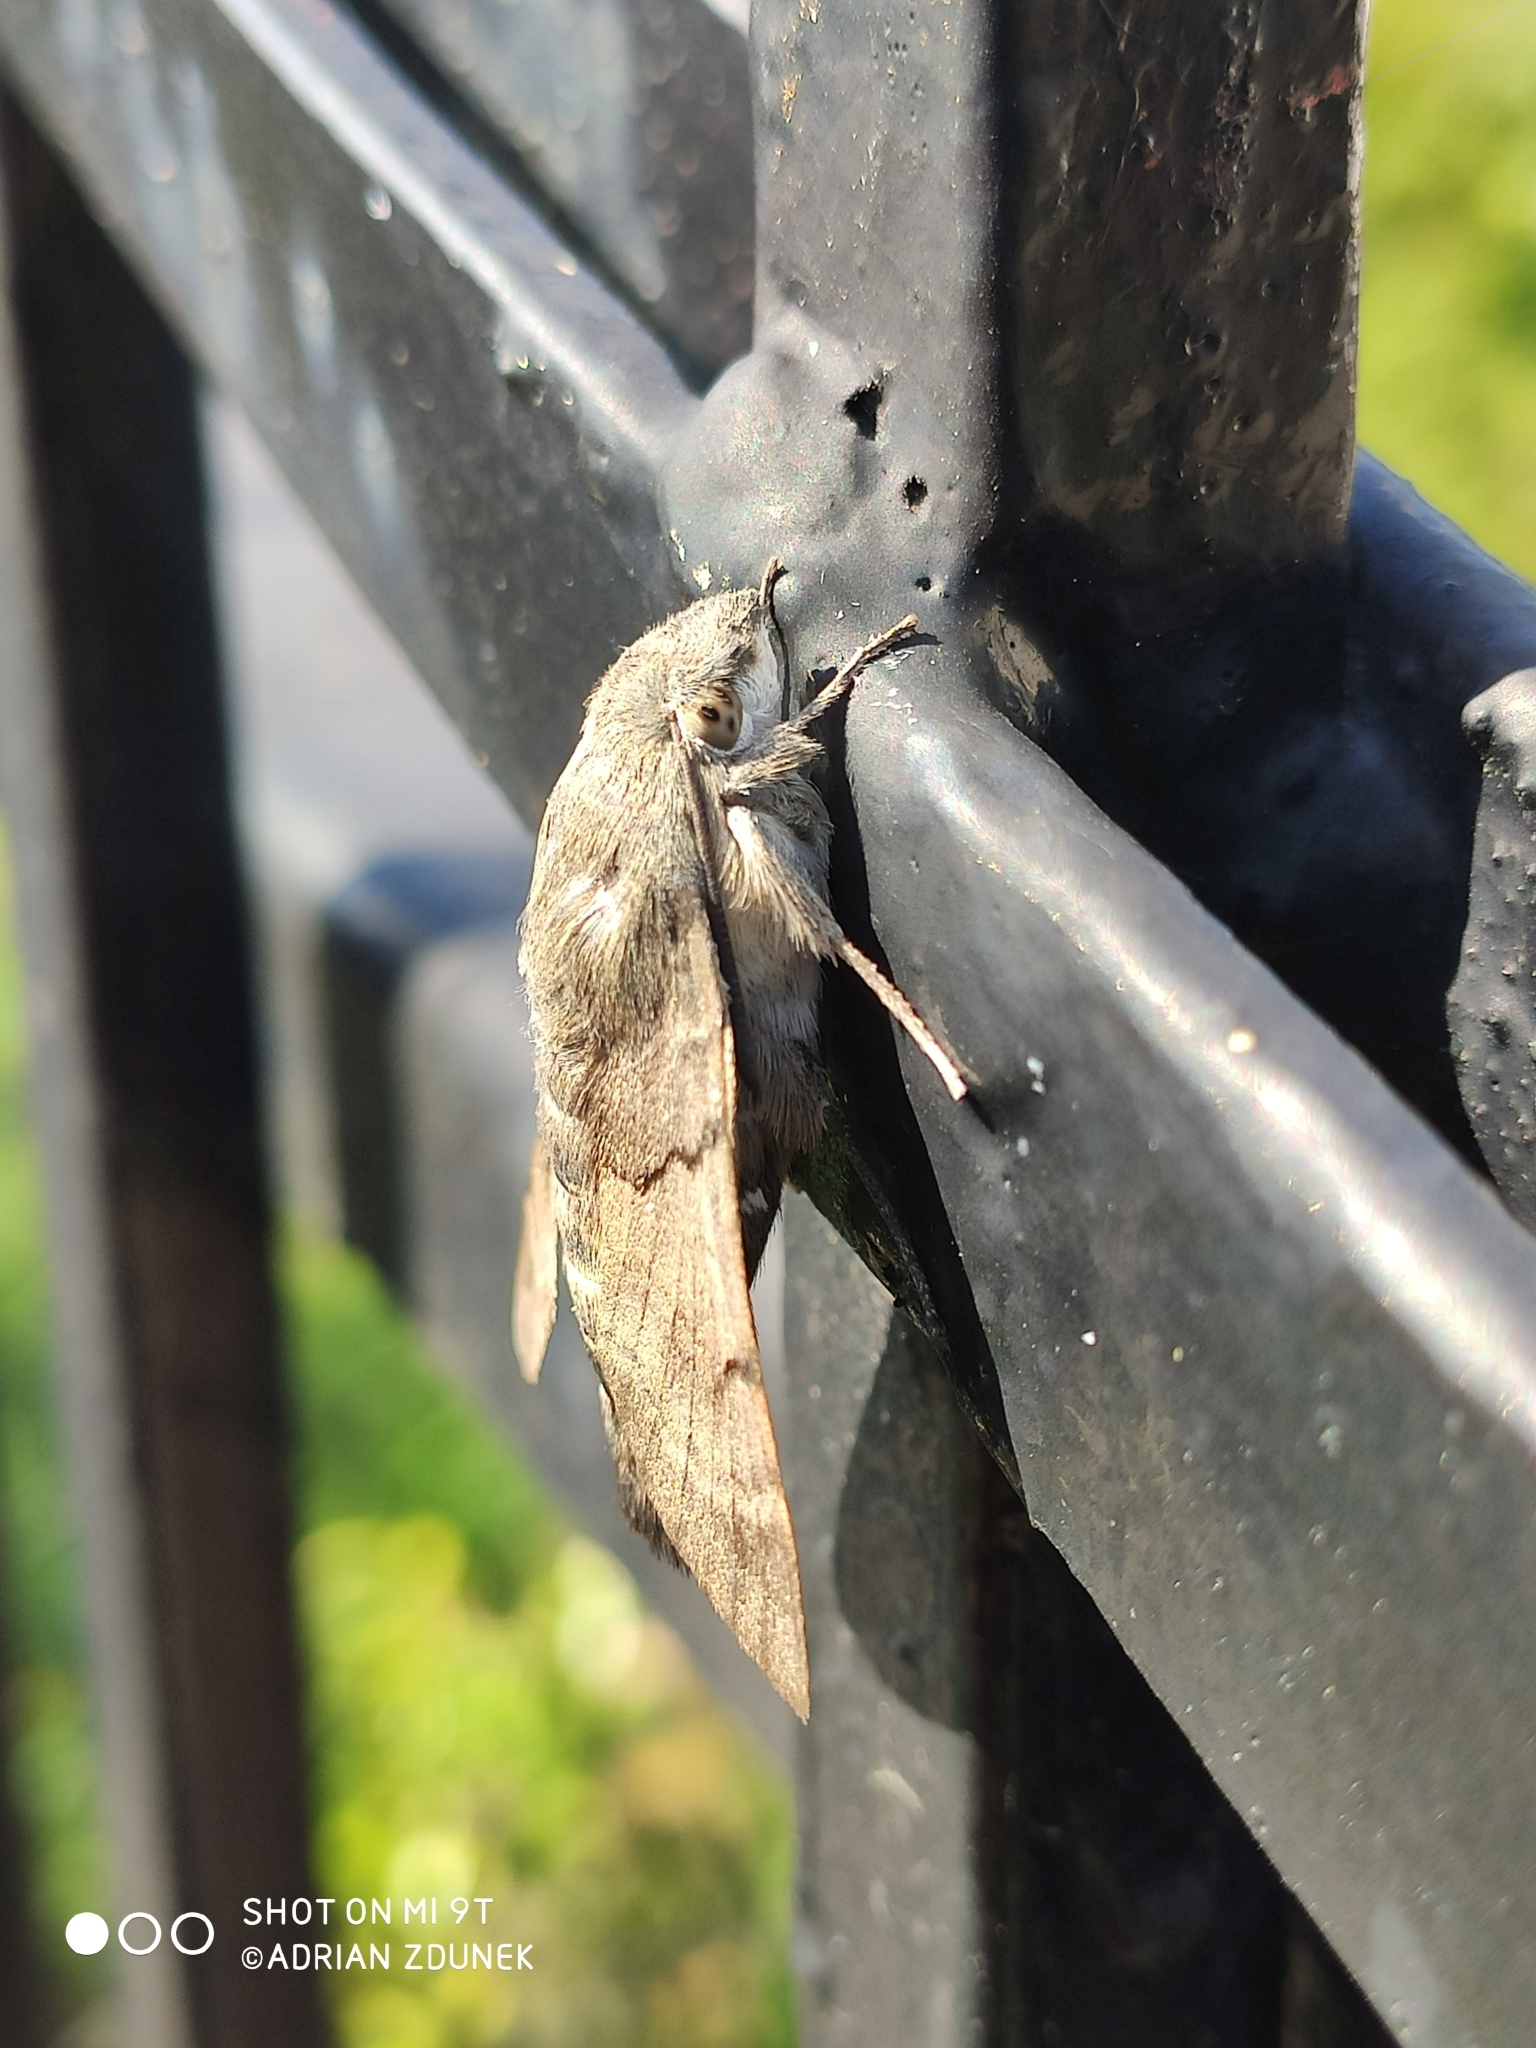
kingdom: Animalia
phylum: Arthropoda
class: Insecta
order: Lepidoptera
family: Sphingidae
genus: Macroglossum
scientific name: Macroglossum stellatarum
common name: Humming-bird hawk-moth
